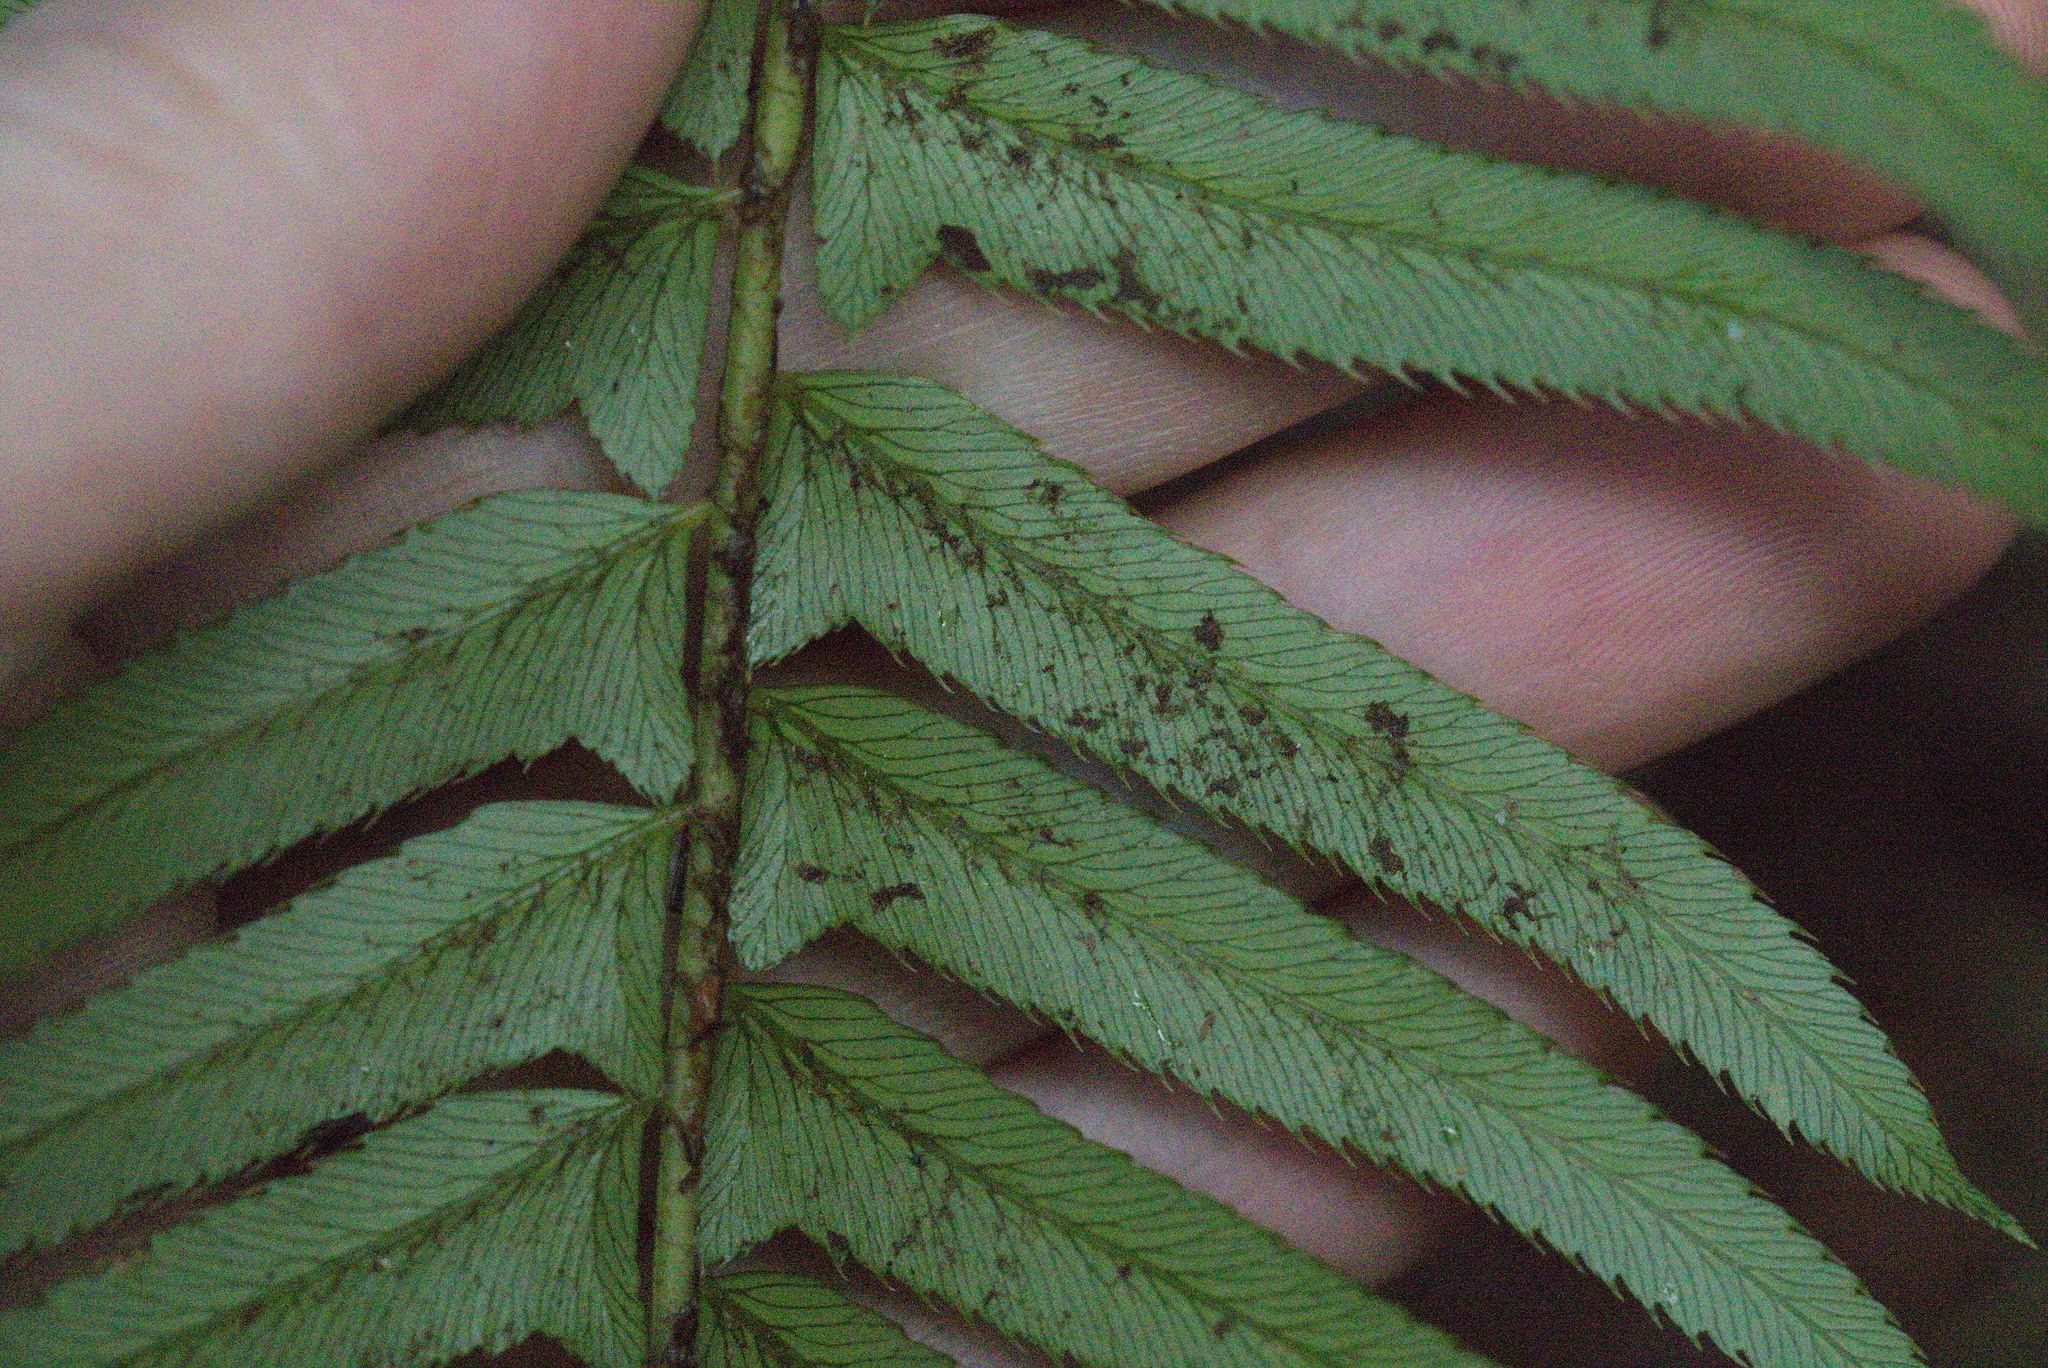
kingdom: Plantae
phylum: Tracheophyta
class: Polypodiopsida
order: Polypodiales
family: Dryopteridaceae
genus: Polystichum
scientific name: Polystichum munitum
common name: Western sword-fern
